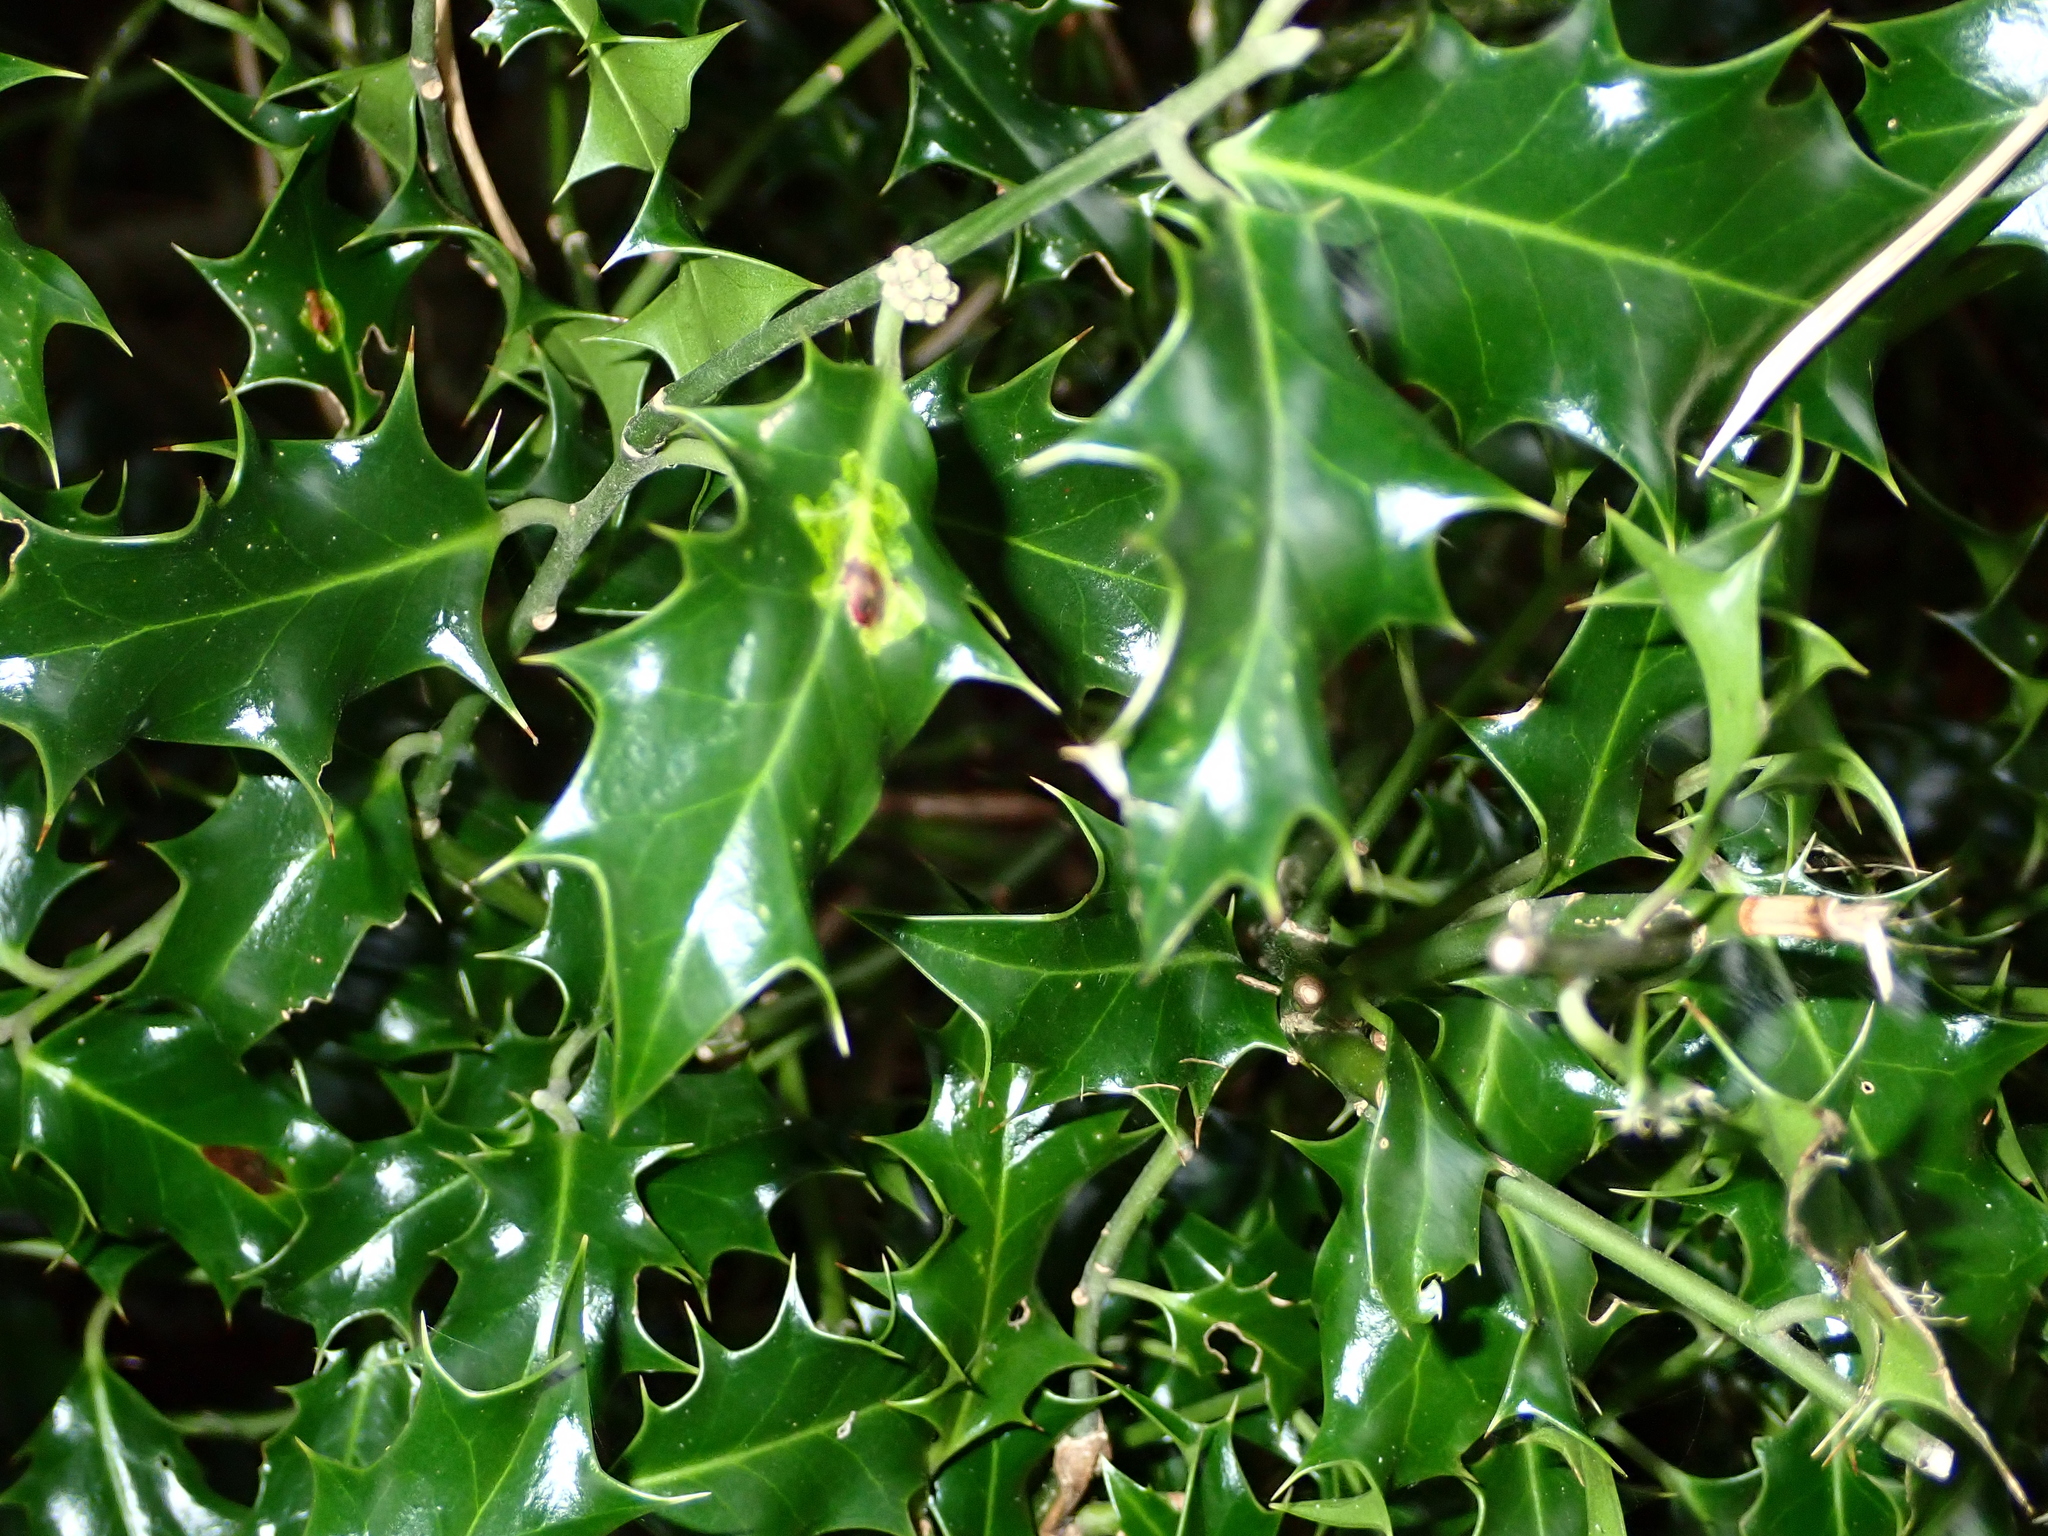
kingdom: Plantae
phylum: Tracheophyta
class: Magnoliopsida
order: Aquifoliales
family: Aquifoliaceae
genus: Ilex
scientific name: Ilex aquifolium
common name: English holly
